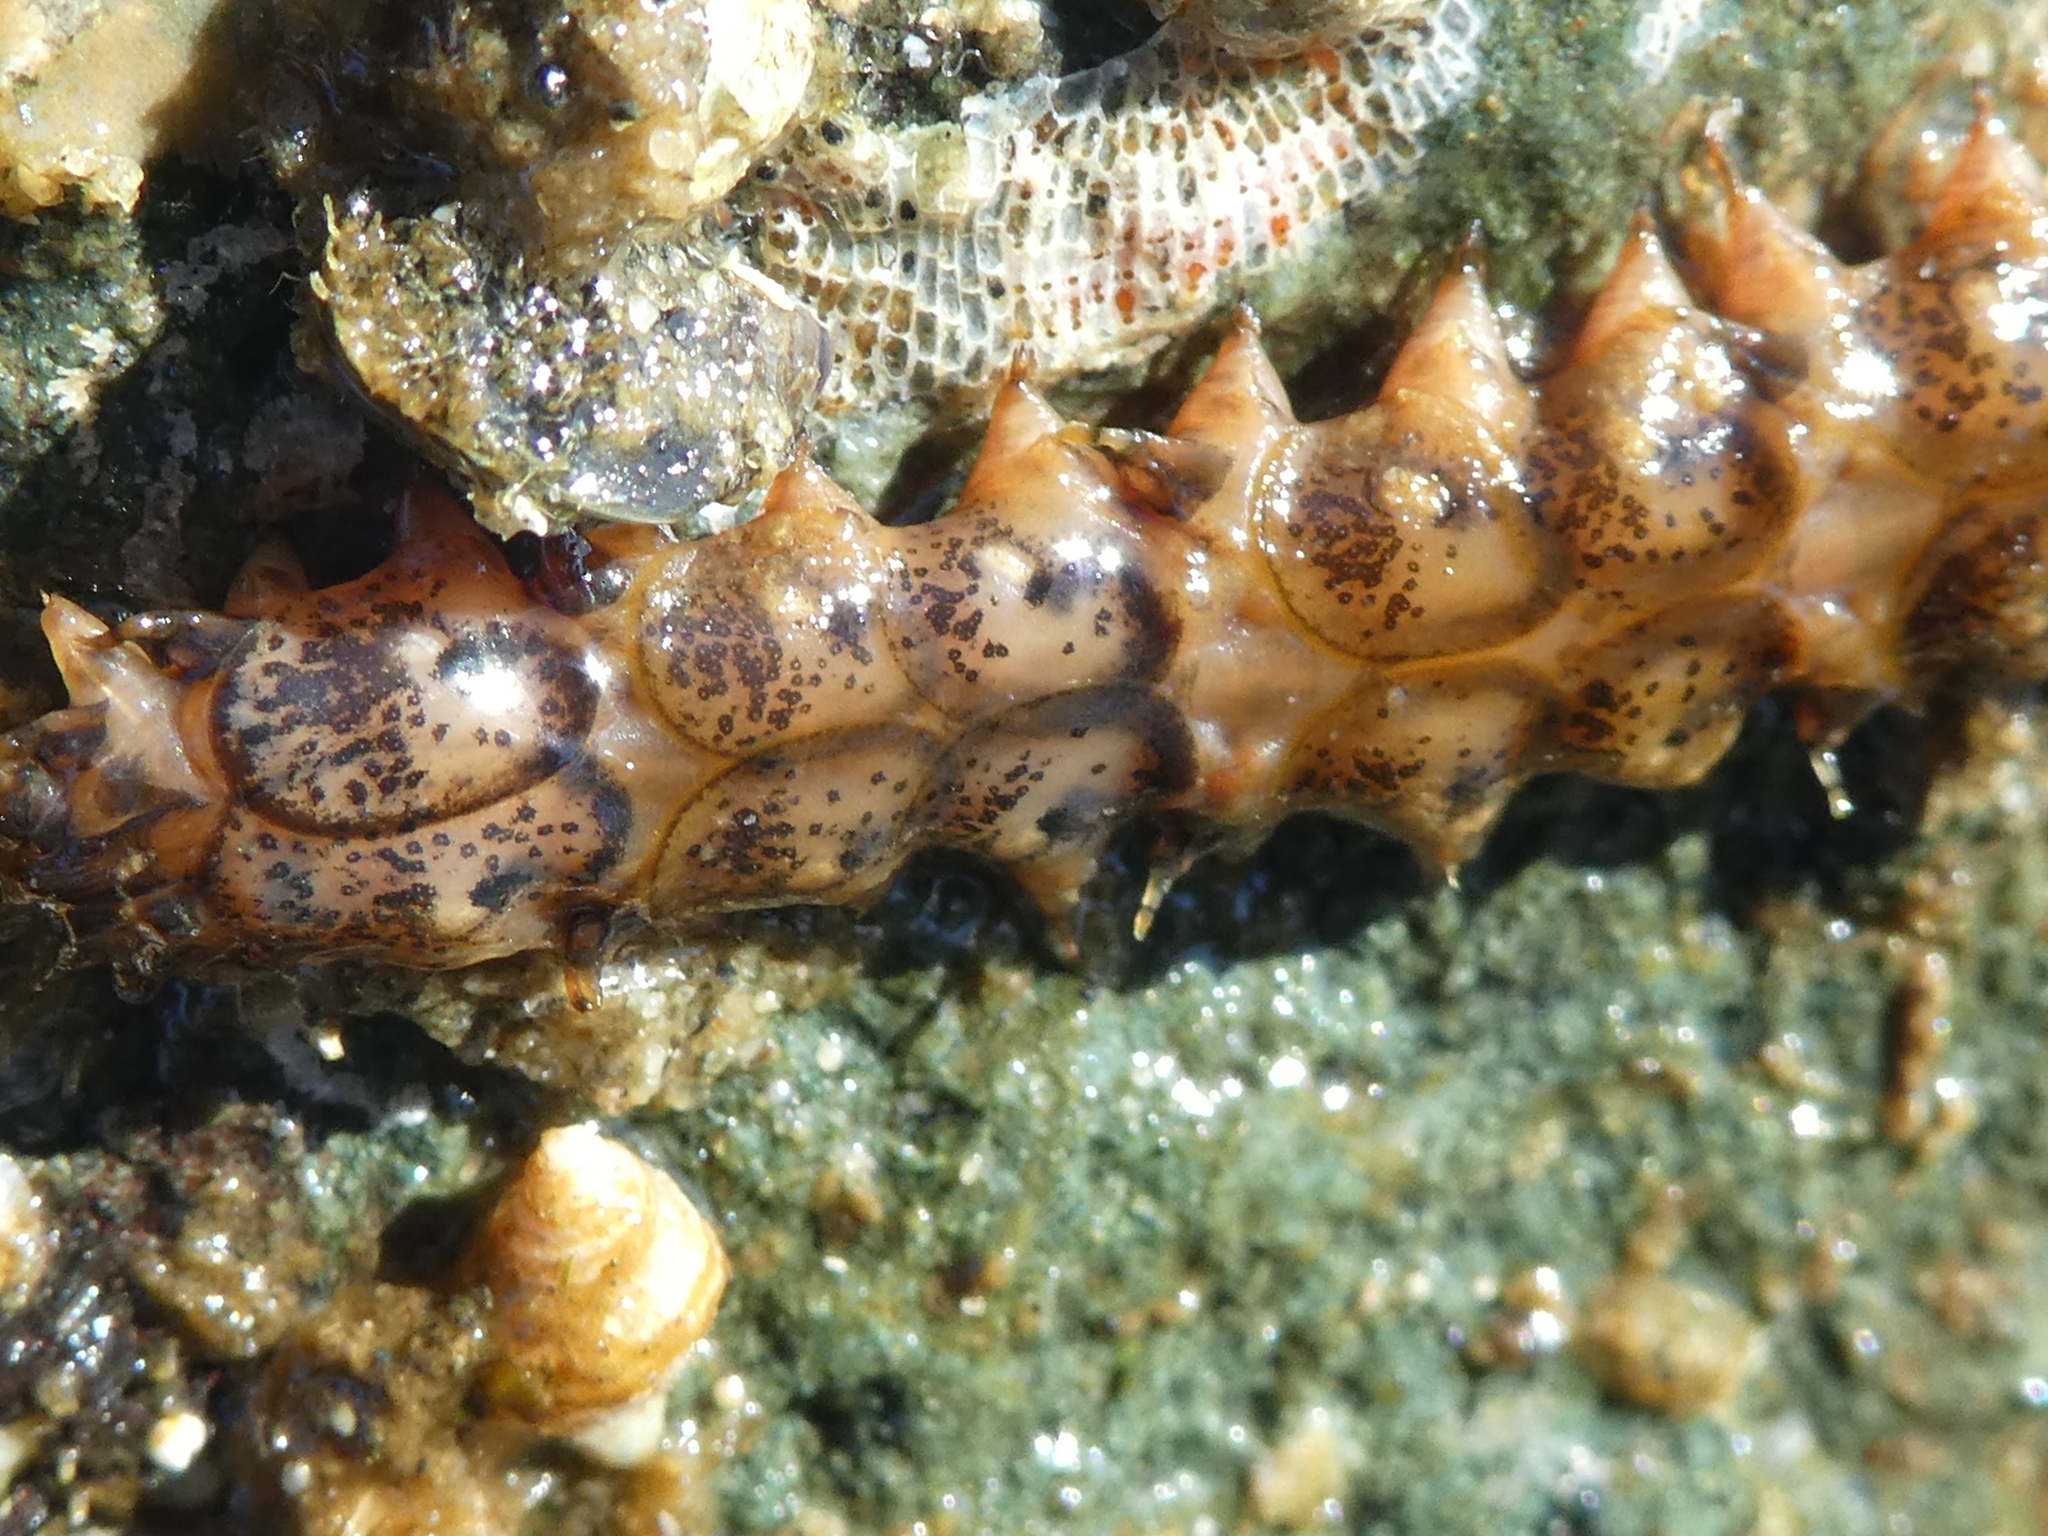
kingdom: Animalia
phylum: Annelida
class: Polychaeta
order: Phyllodocida
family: Polynoidae
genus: Halosydna
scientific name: Halosydna brevisetosa
